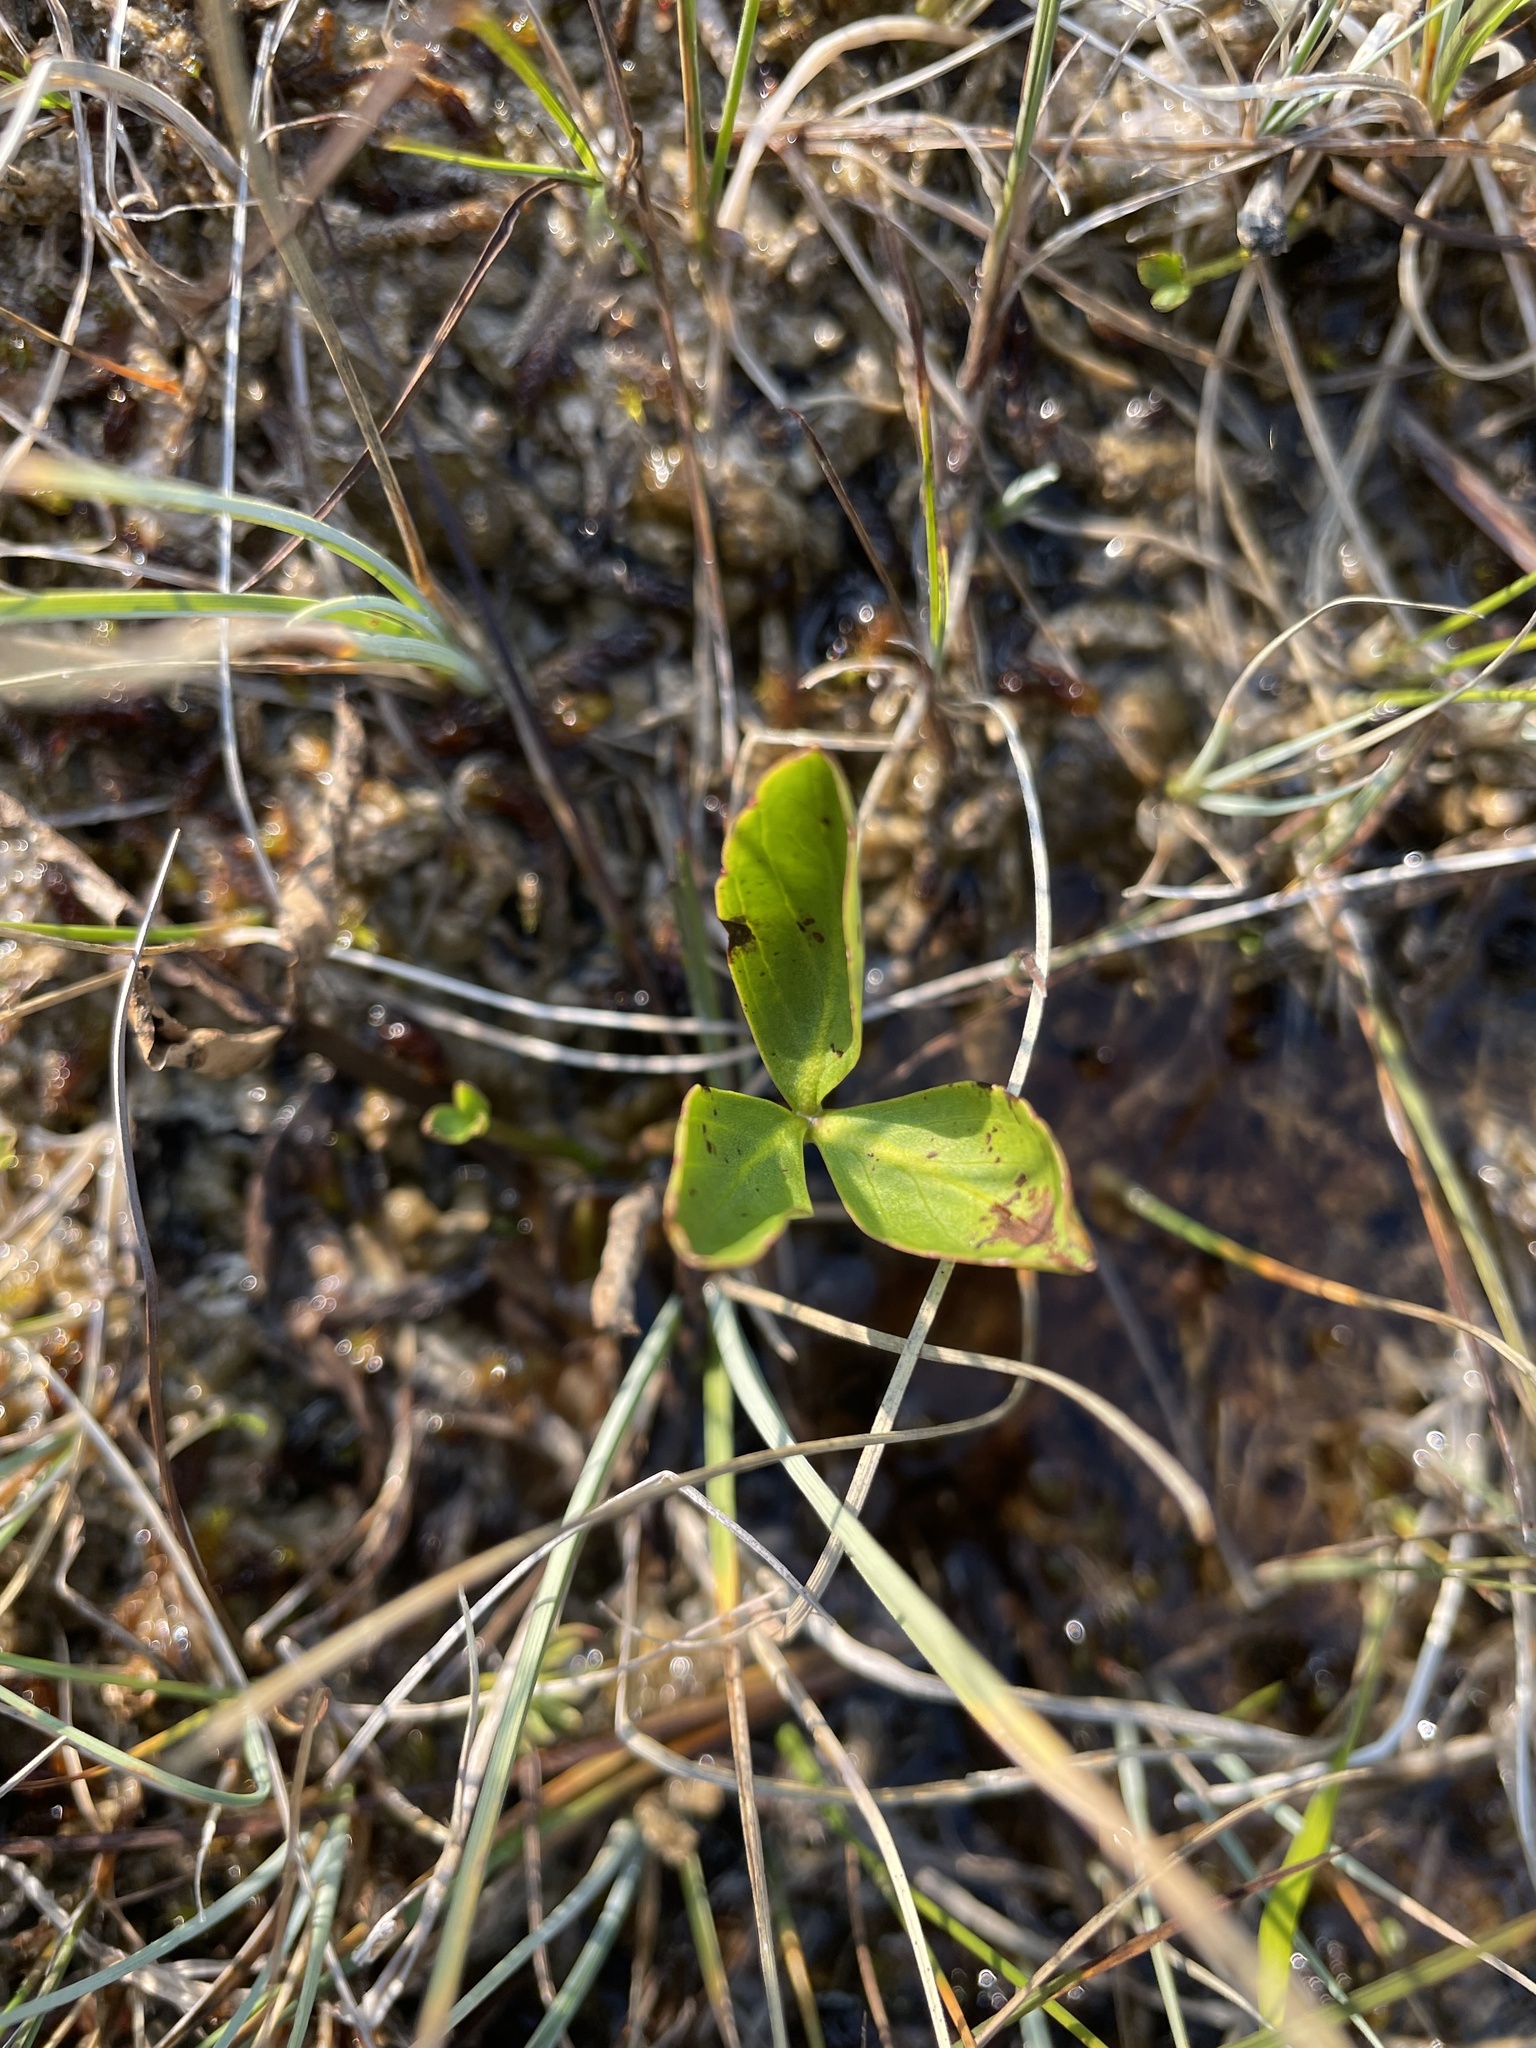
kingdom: Plantae
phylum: Tracheophyta
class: Magnoliopsida
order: Asterales
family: Menyanthaceae
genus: Menyanthes
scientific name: Menyanthes trifoliata
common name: Bogbean
